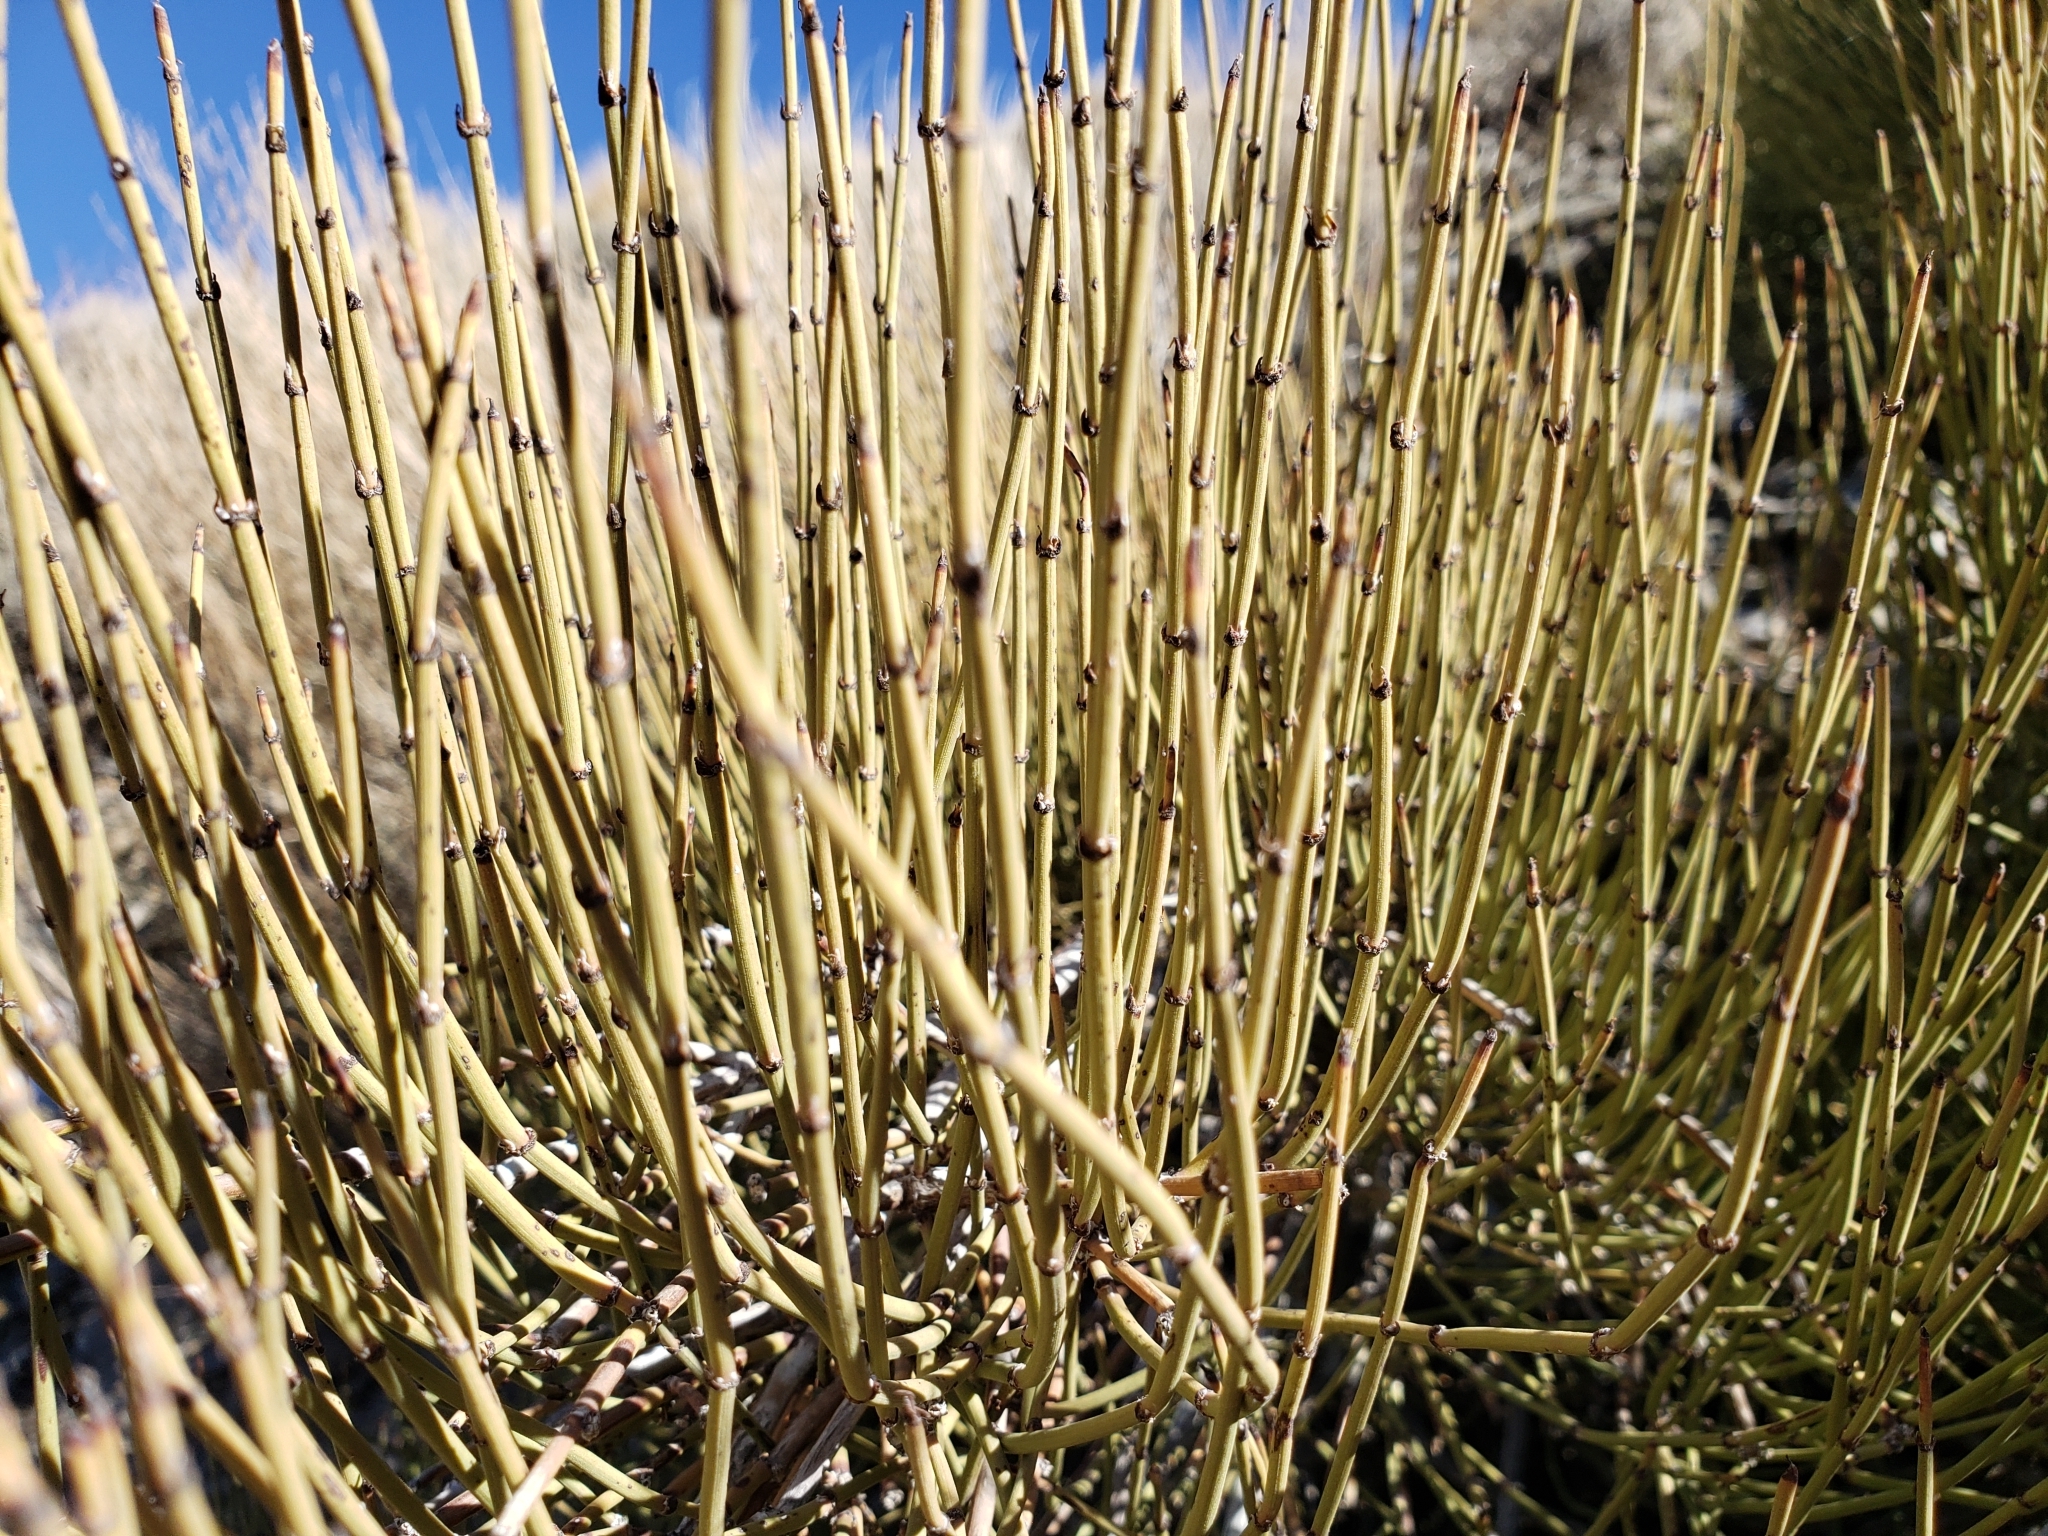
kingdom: Plantae
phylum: Tracheophyta
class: Gnetopsida
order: Ephedrales
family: Ephedraceae
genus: Ephedra
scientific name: Ephedra viridis
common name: Green ephedra
